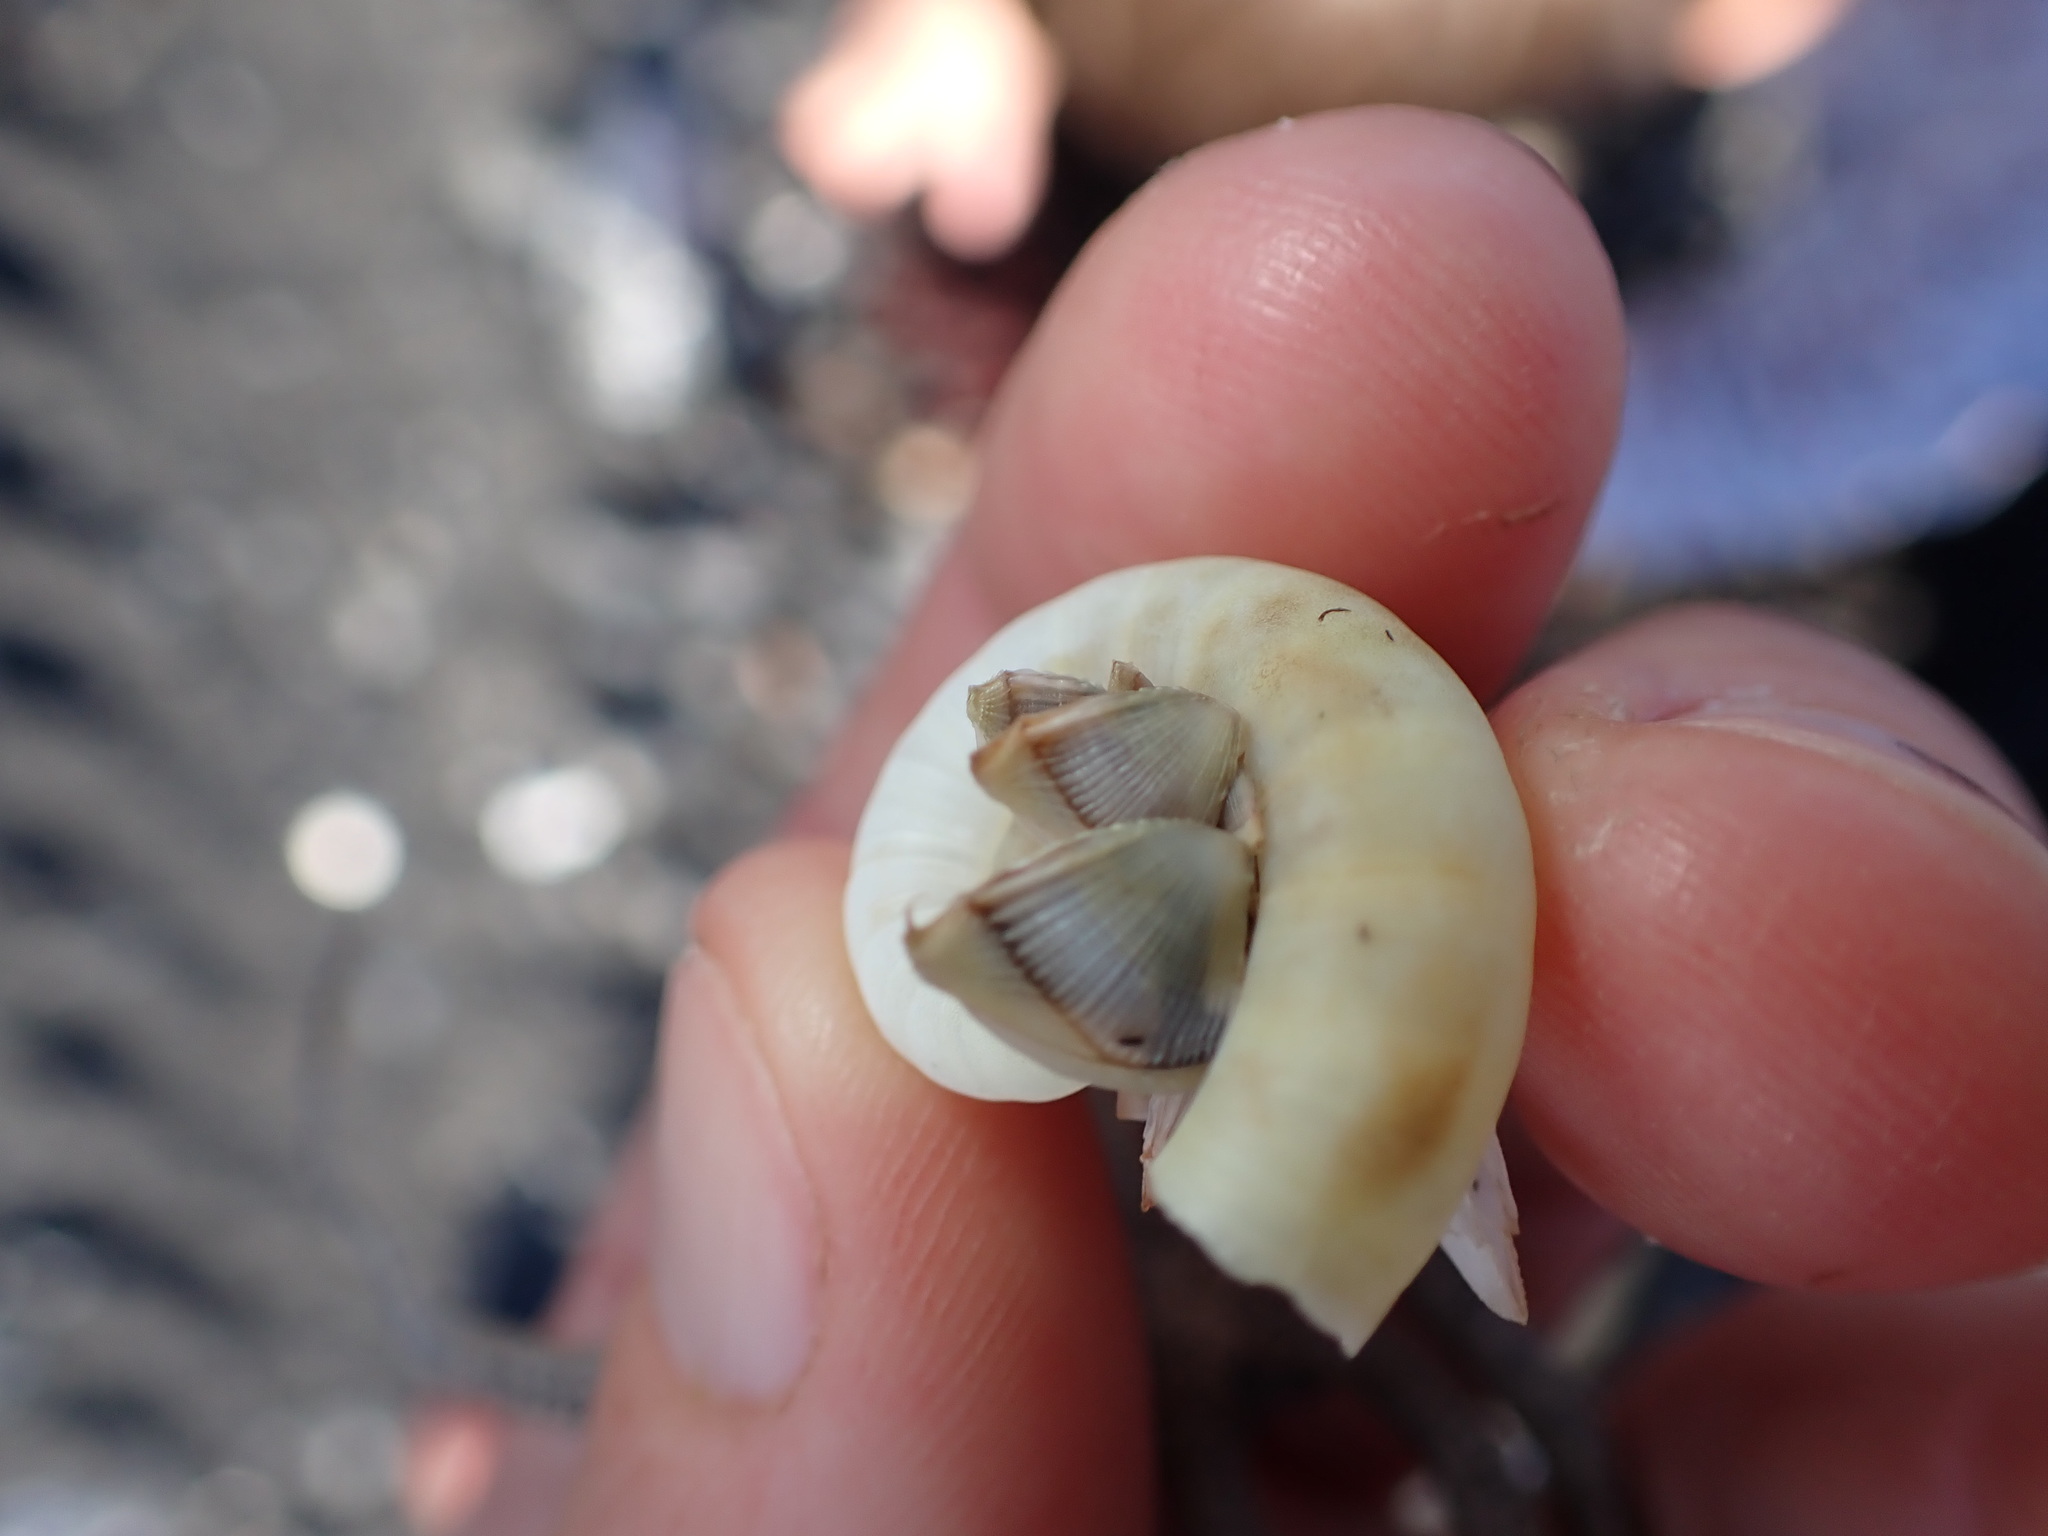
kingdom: Animalia
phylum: Arthropoda
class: Maxillopoda
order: Pedunculata
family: Lepadidae
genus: Lepas
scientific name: Lepas pectinata
